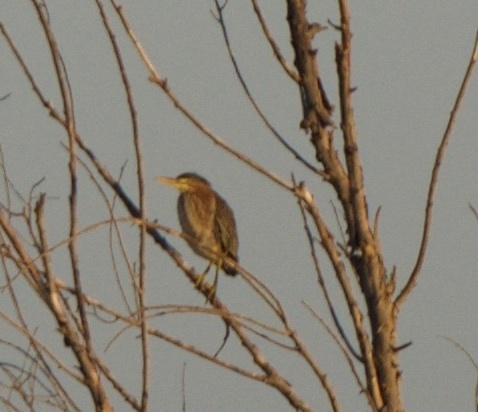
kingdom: Animalia
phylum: Chordata
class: Aves
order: Pelecaniformes
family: Ardeidae
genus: Butorides
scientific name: Butorides virescens
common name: Green heron
